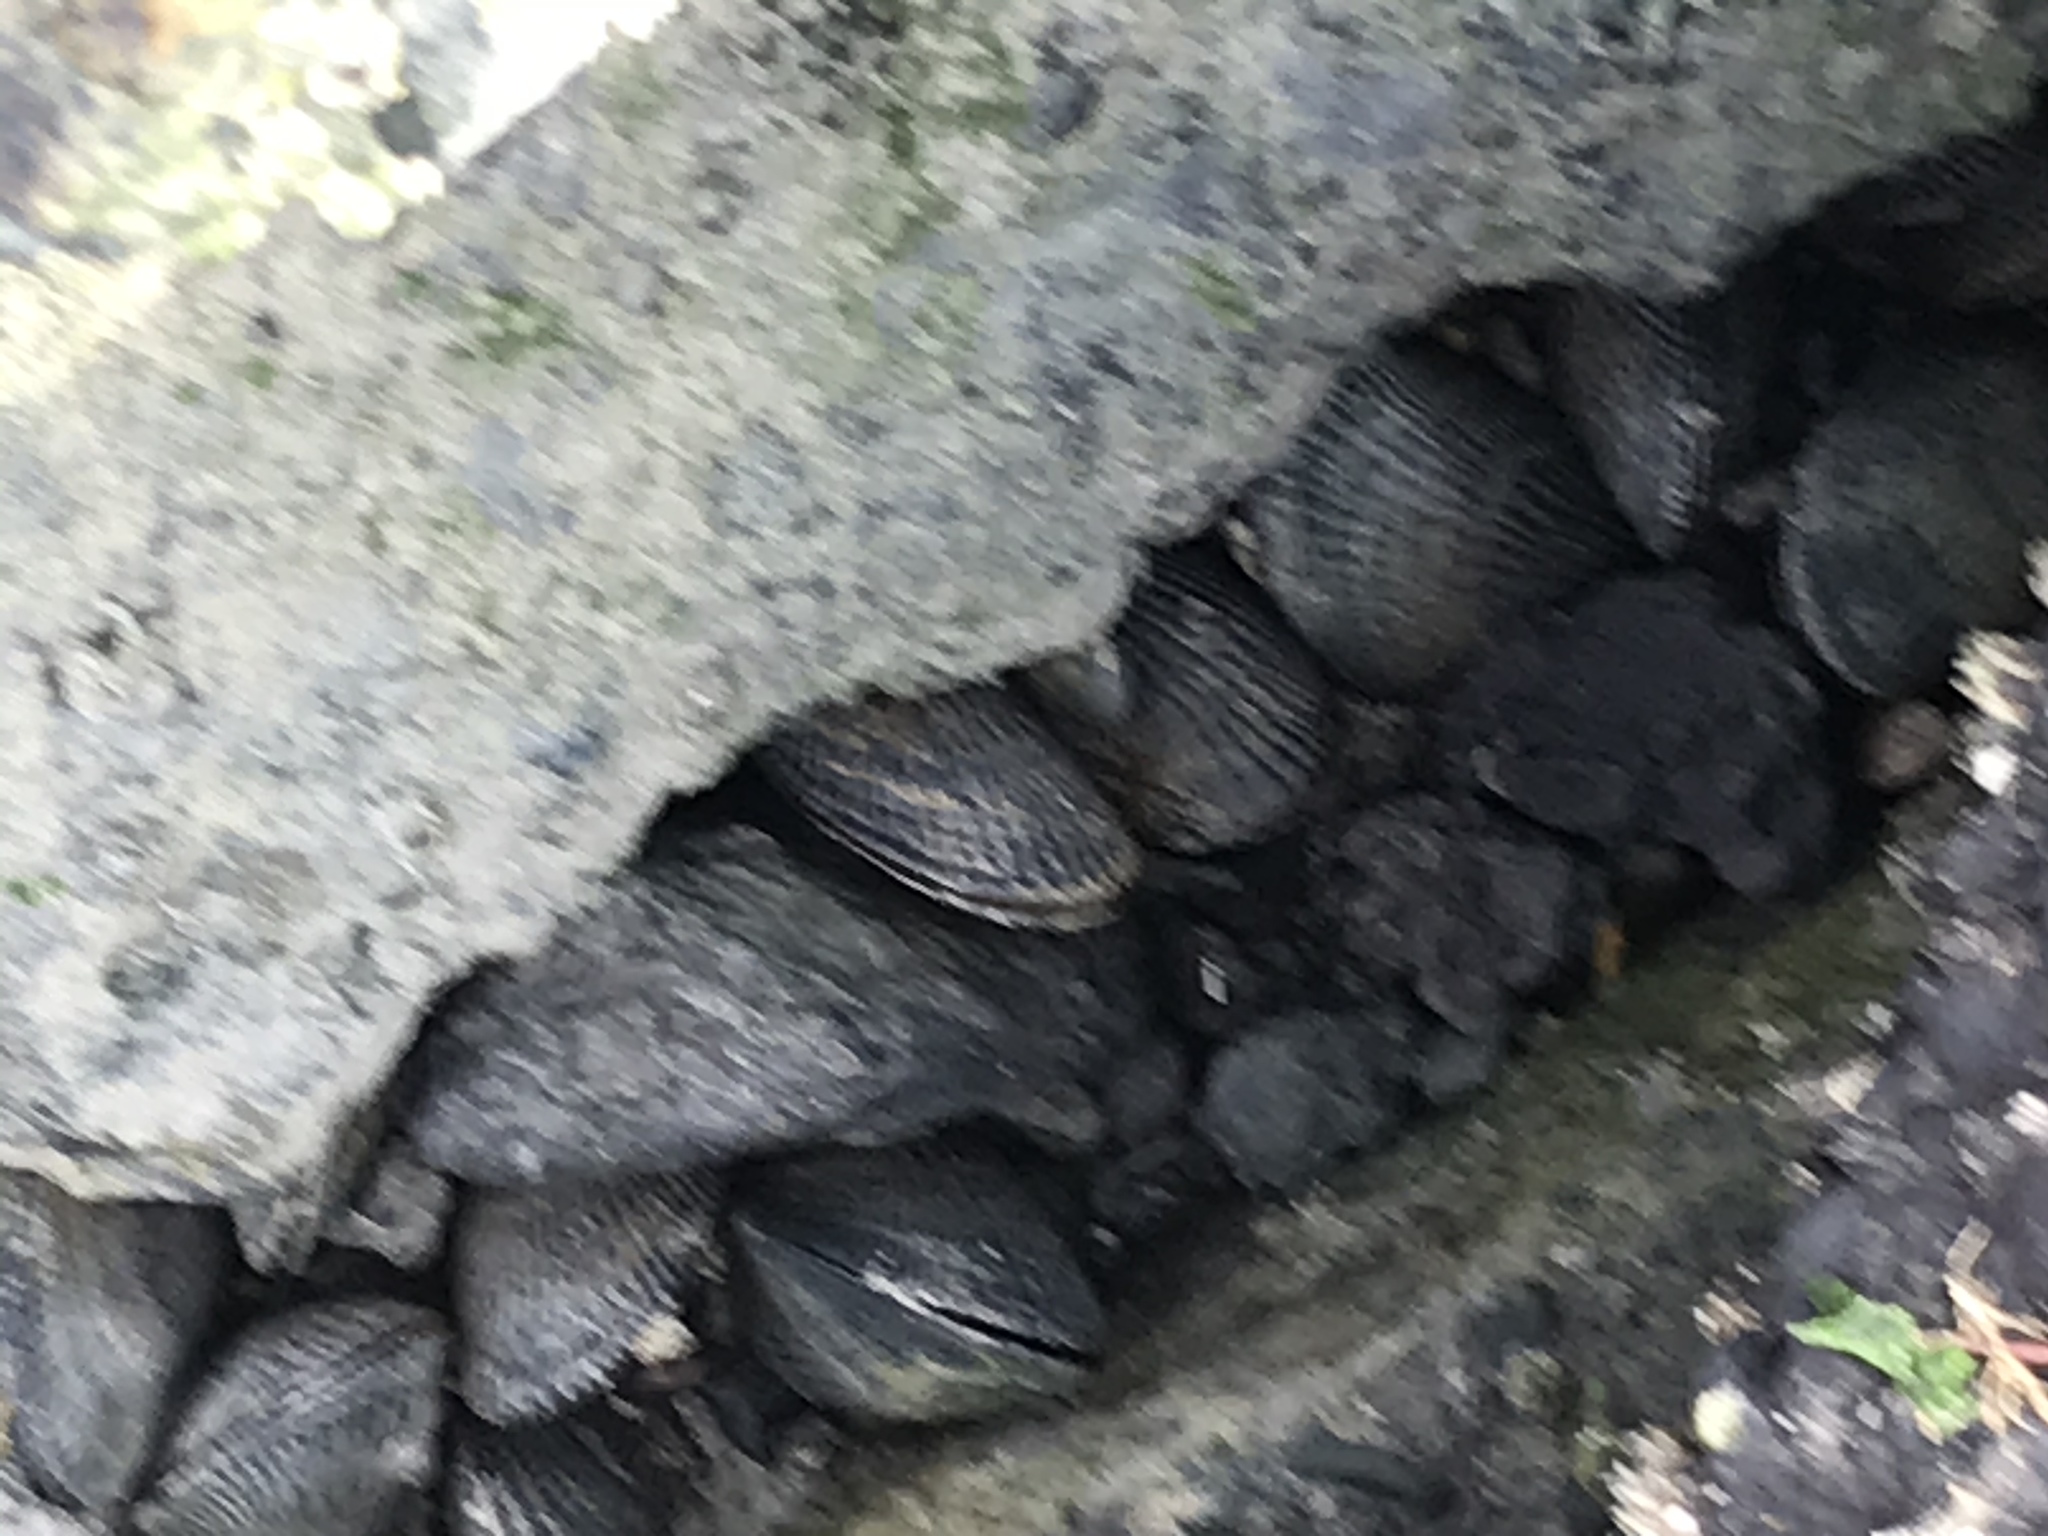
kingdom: Animalia
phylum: Mollusca
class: Bivalvia
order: Mytilida
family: Mytilidae
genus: Geukensia
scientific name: Geukensia demissa
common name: Ribbed mussel
